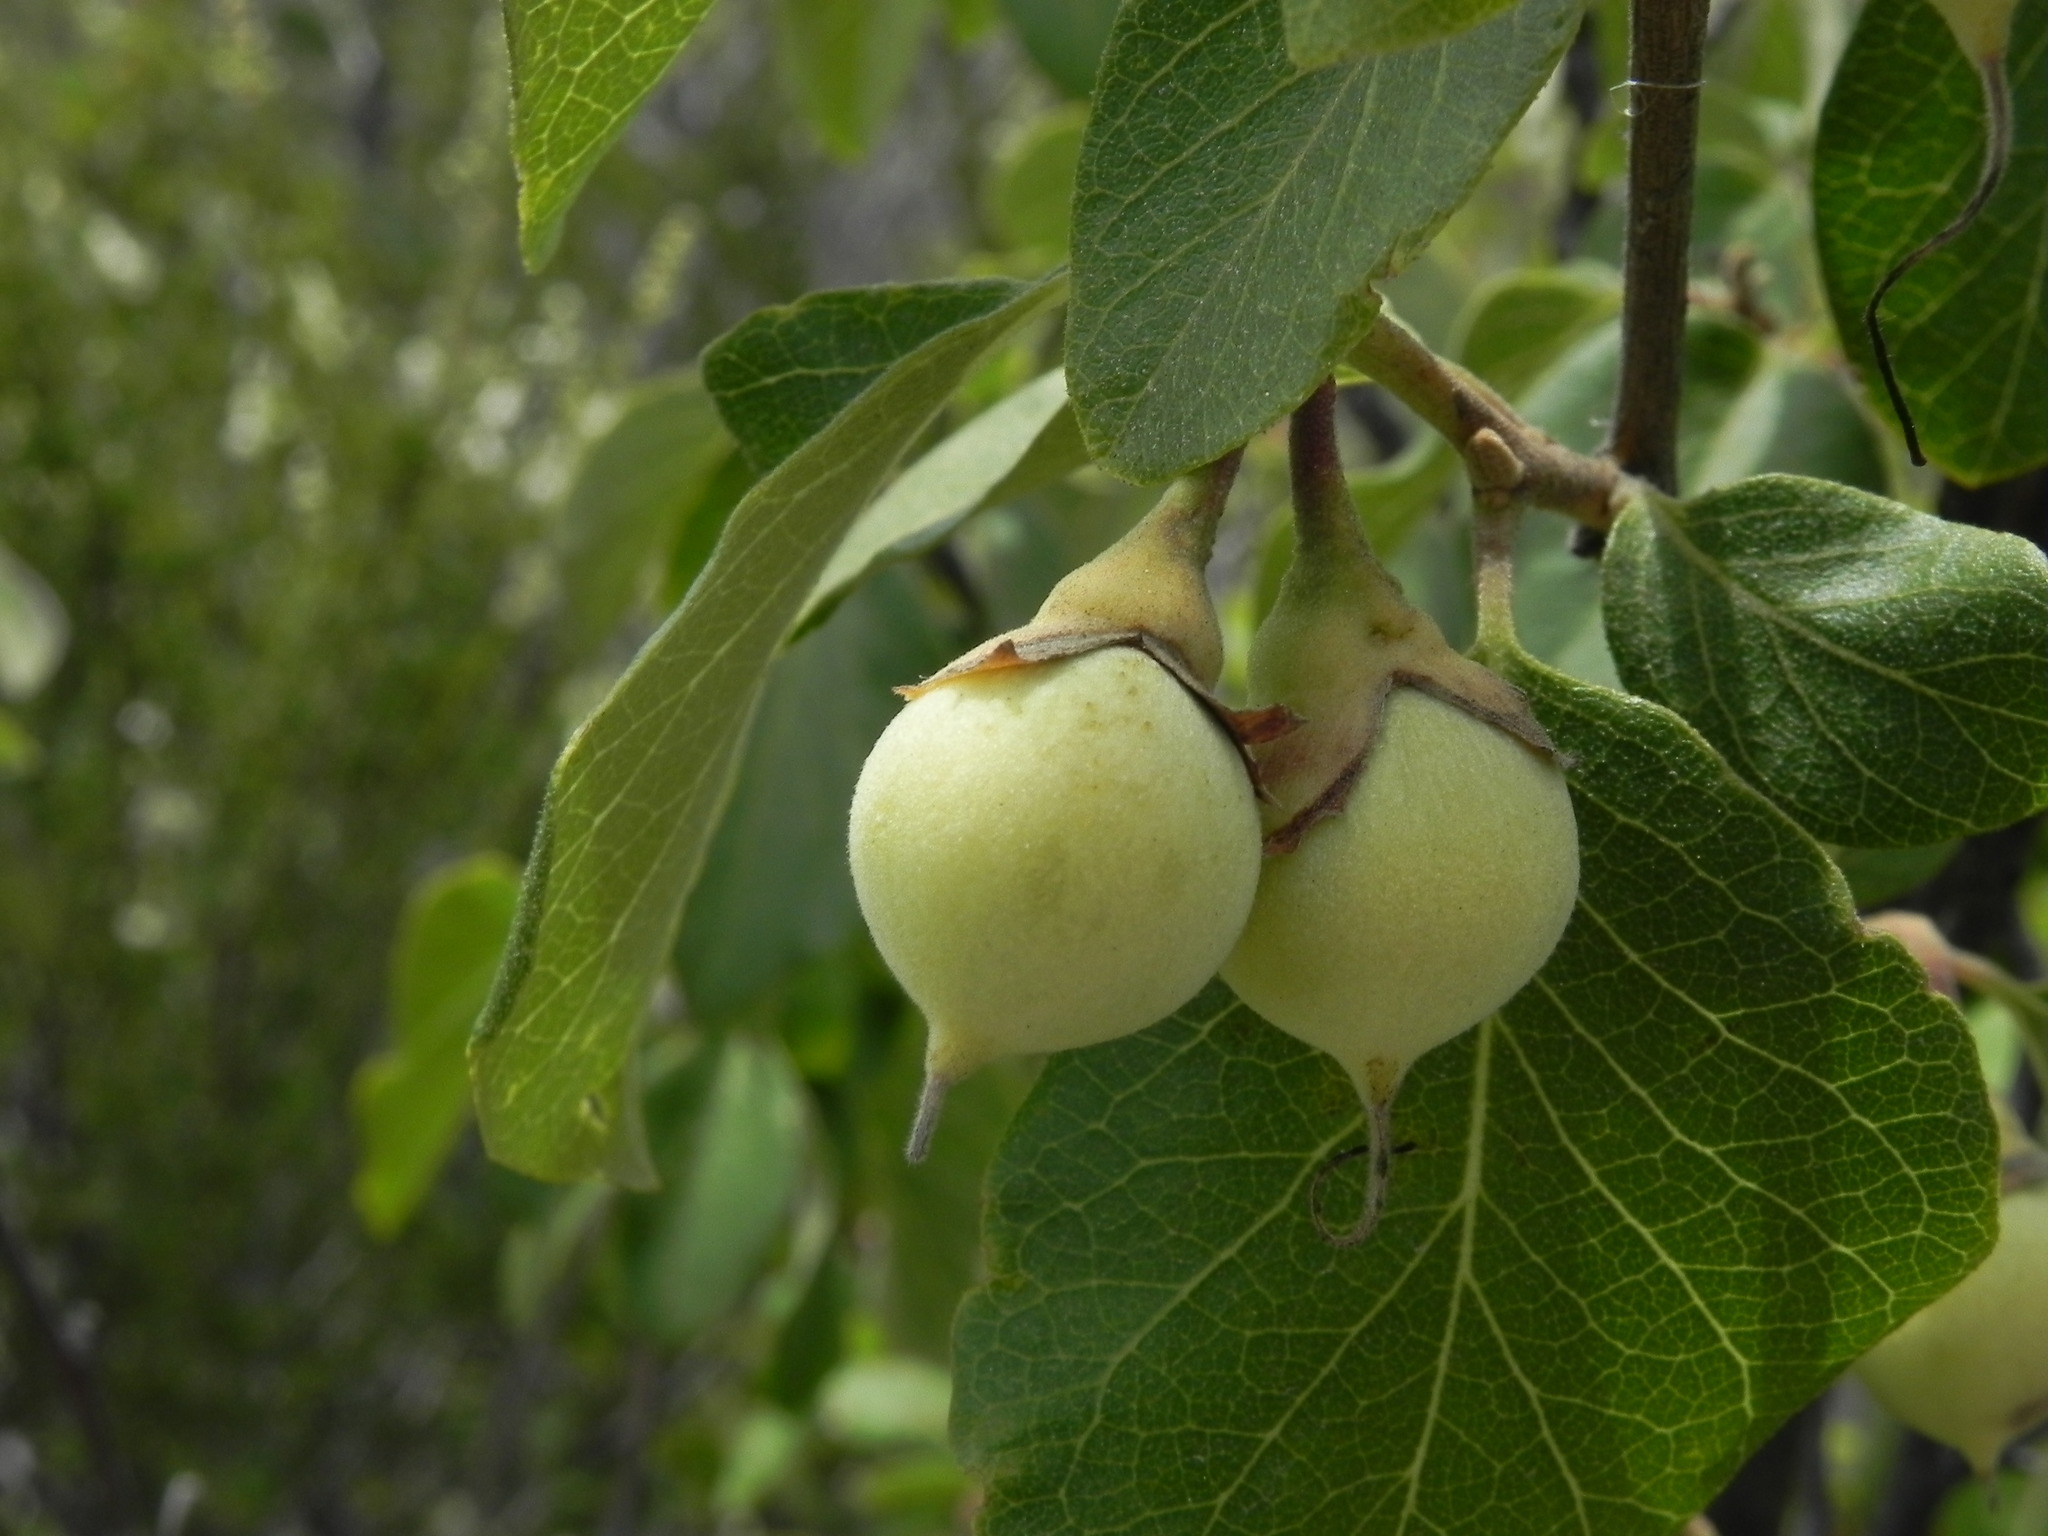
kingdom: Plantae
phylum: Tracheophyta
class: Magnoliopsida
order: Ericales
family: Styracaceae
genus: Styrax
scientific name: Styrax redivivus
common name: California styrax
